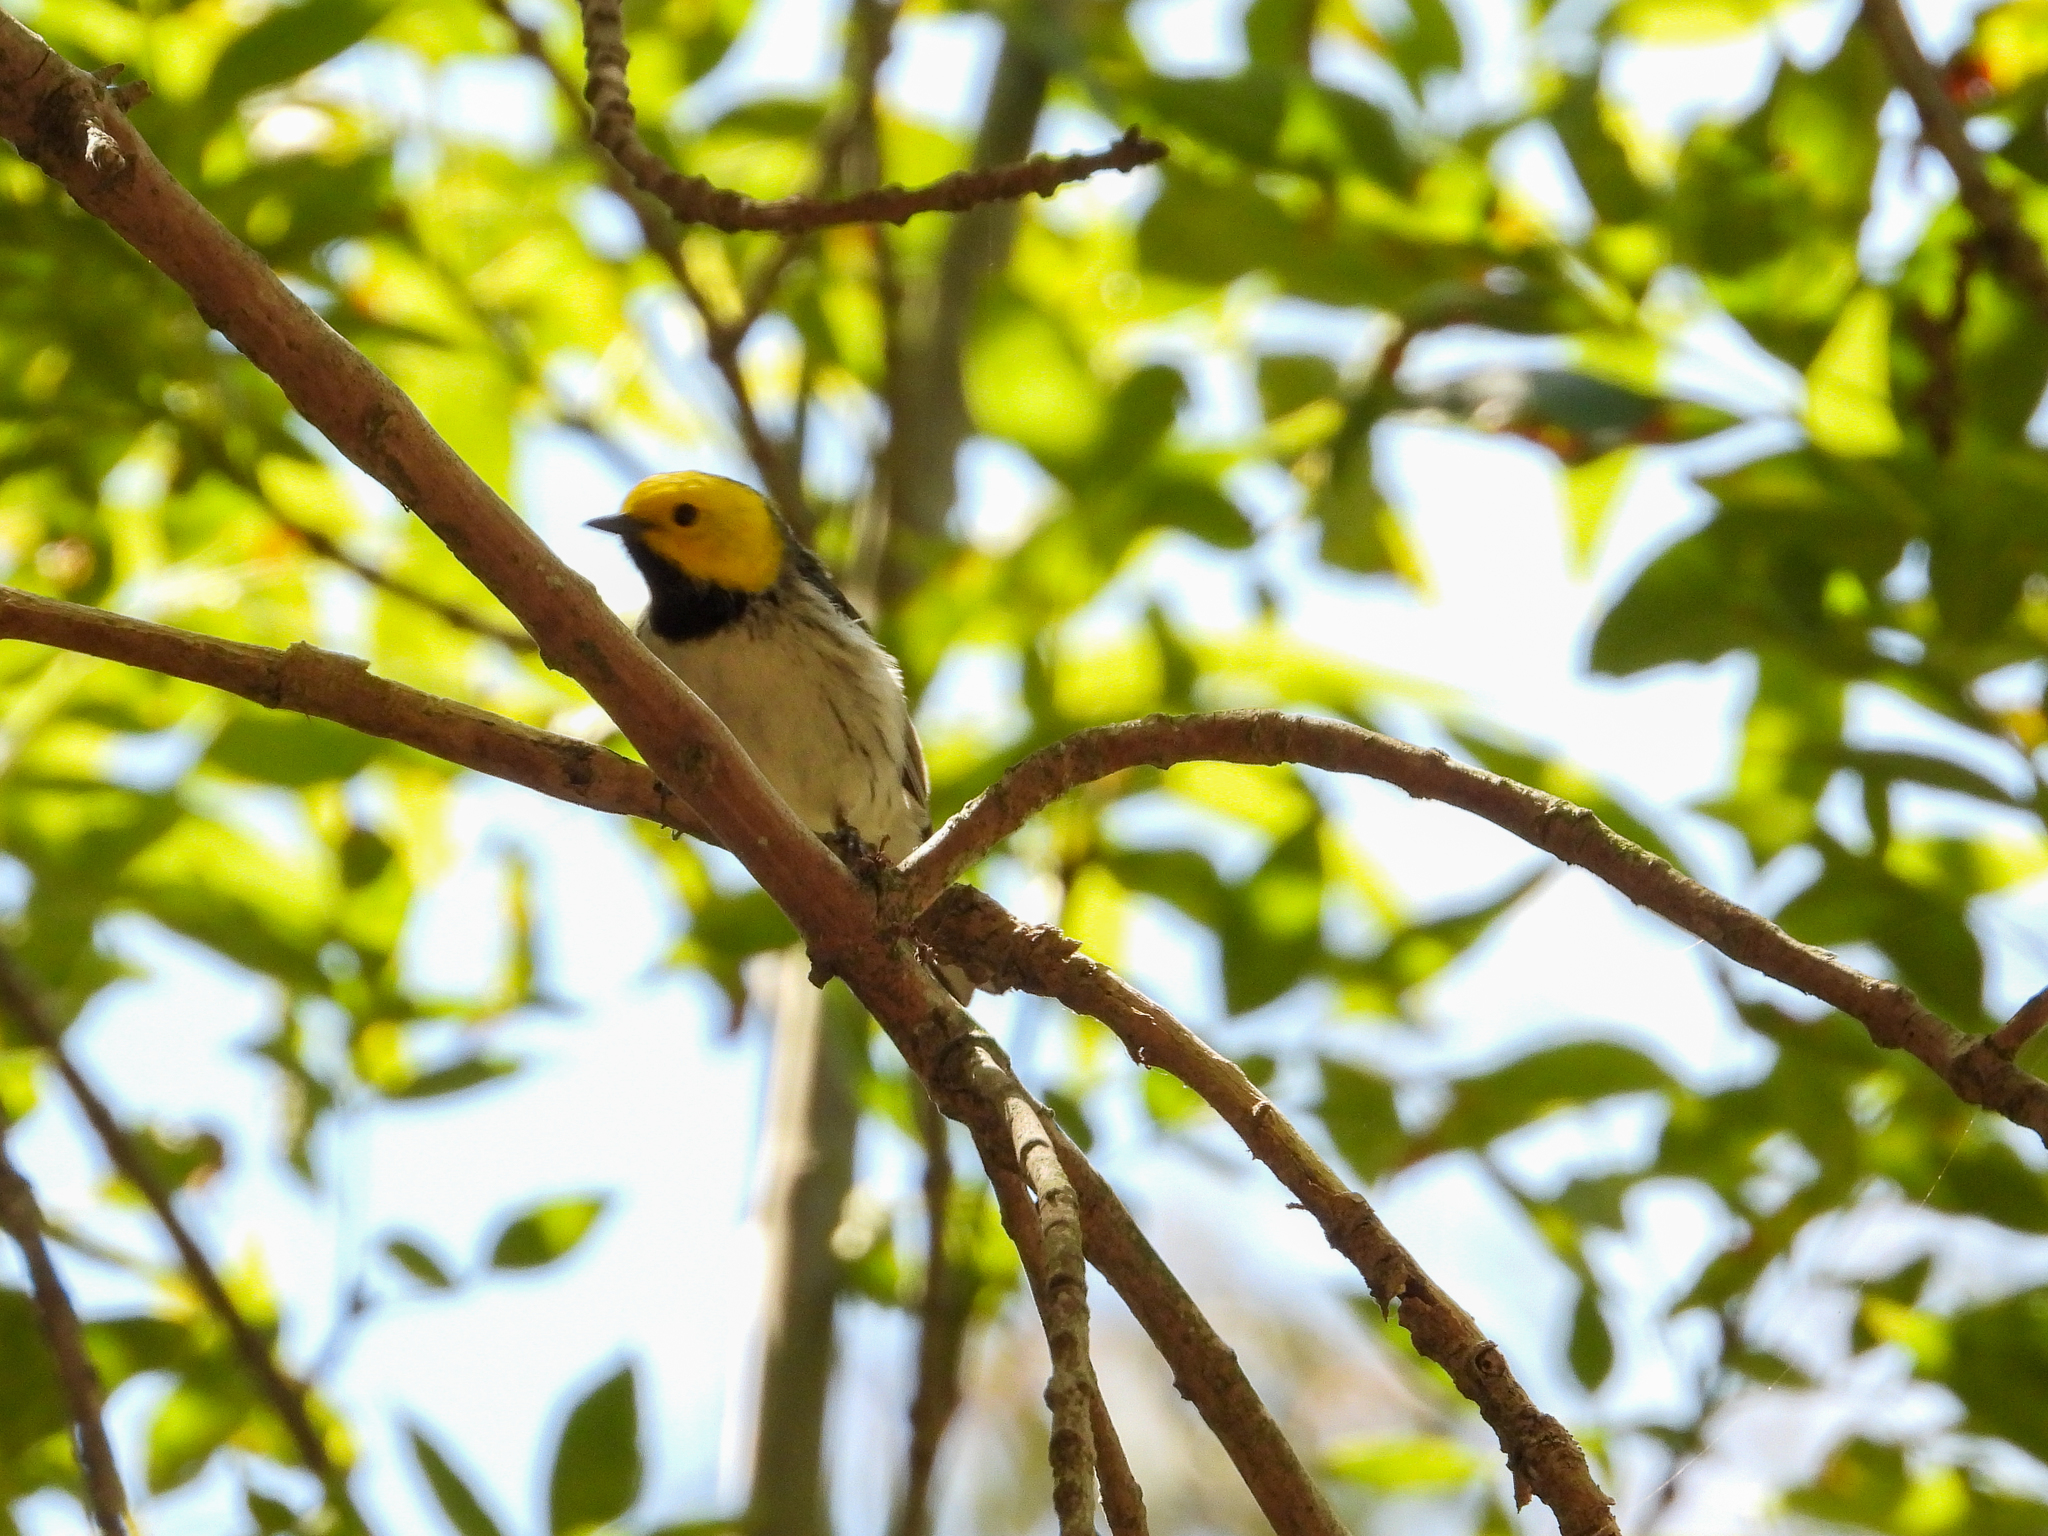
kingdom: Animalia
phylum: Chordata
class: Aves
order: Passeriformes
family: Parulidae
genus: Setophaga
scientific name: Setophaga occidentalis
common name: Hermit warbler
